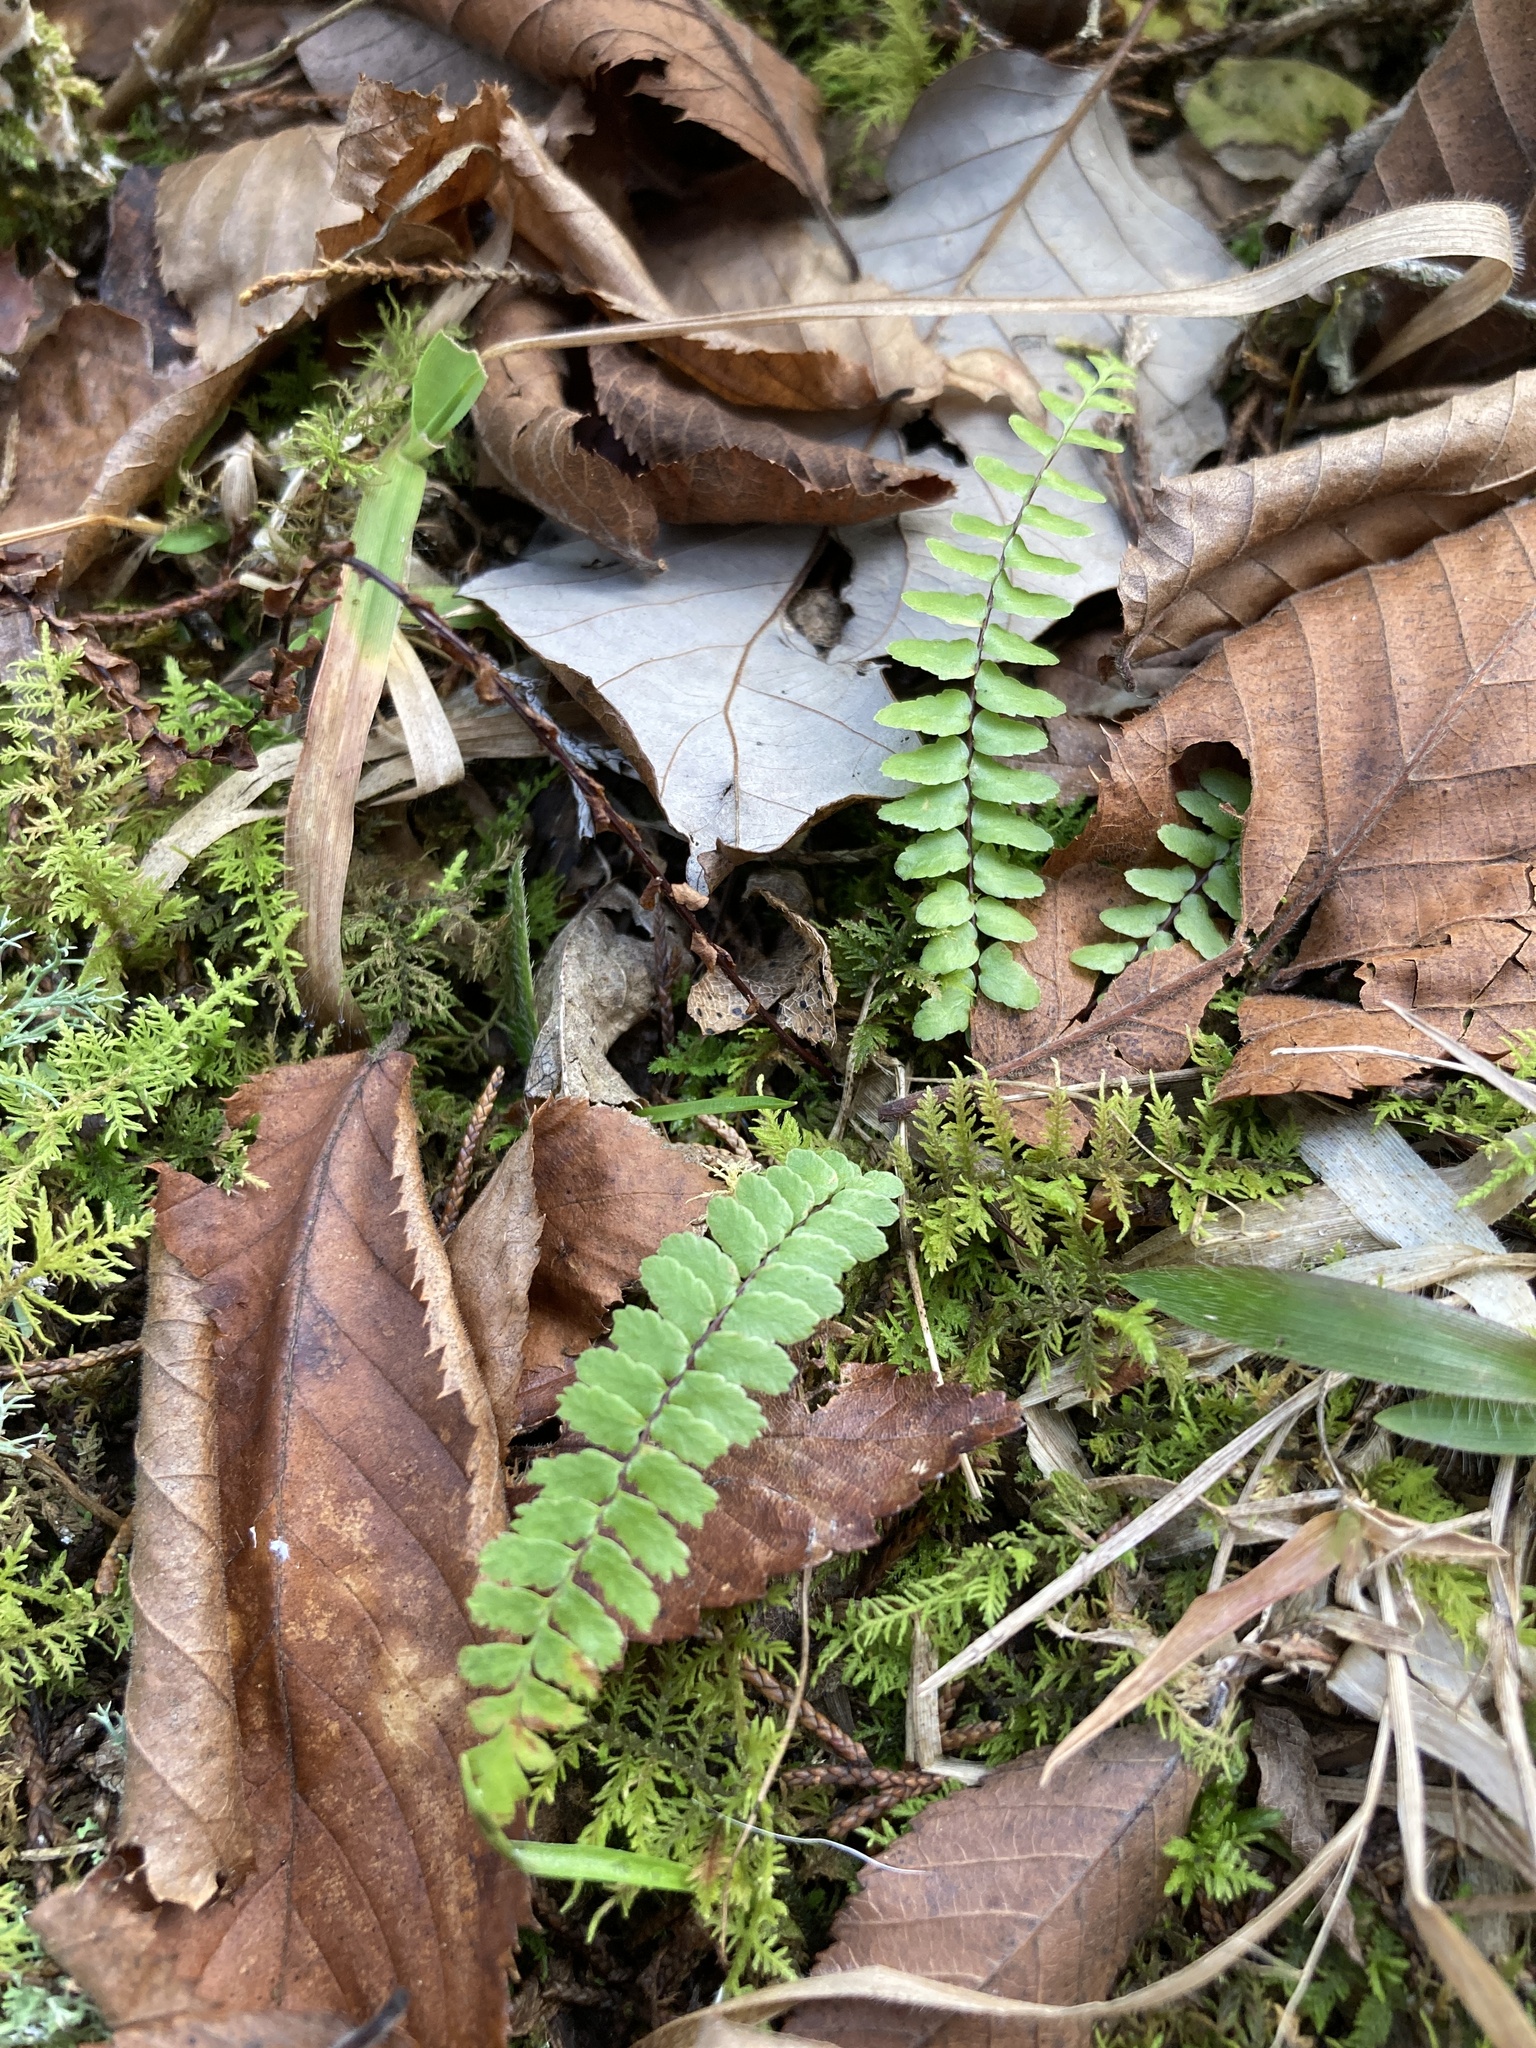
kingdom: Plantae
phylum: Tracheophyta
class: Polypodiopsida
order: Polypodiales
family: Aspleniaceae
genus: Asplenium
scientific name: Asplenium platyneuron
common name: Ebony spleenwort
